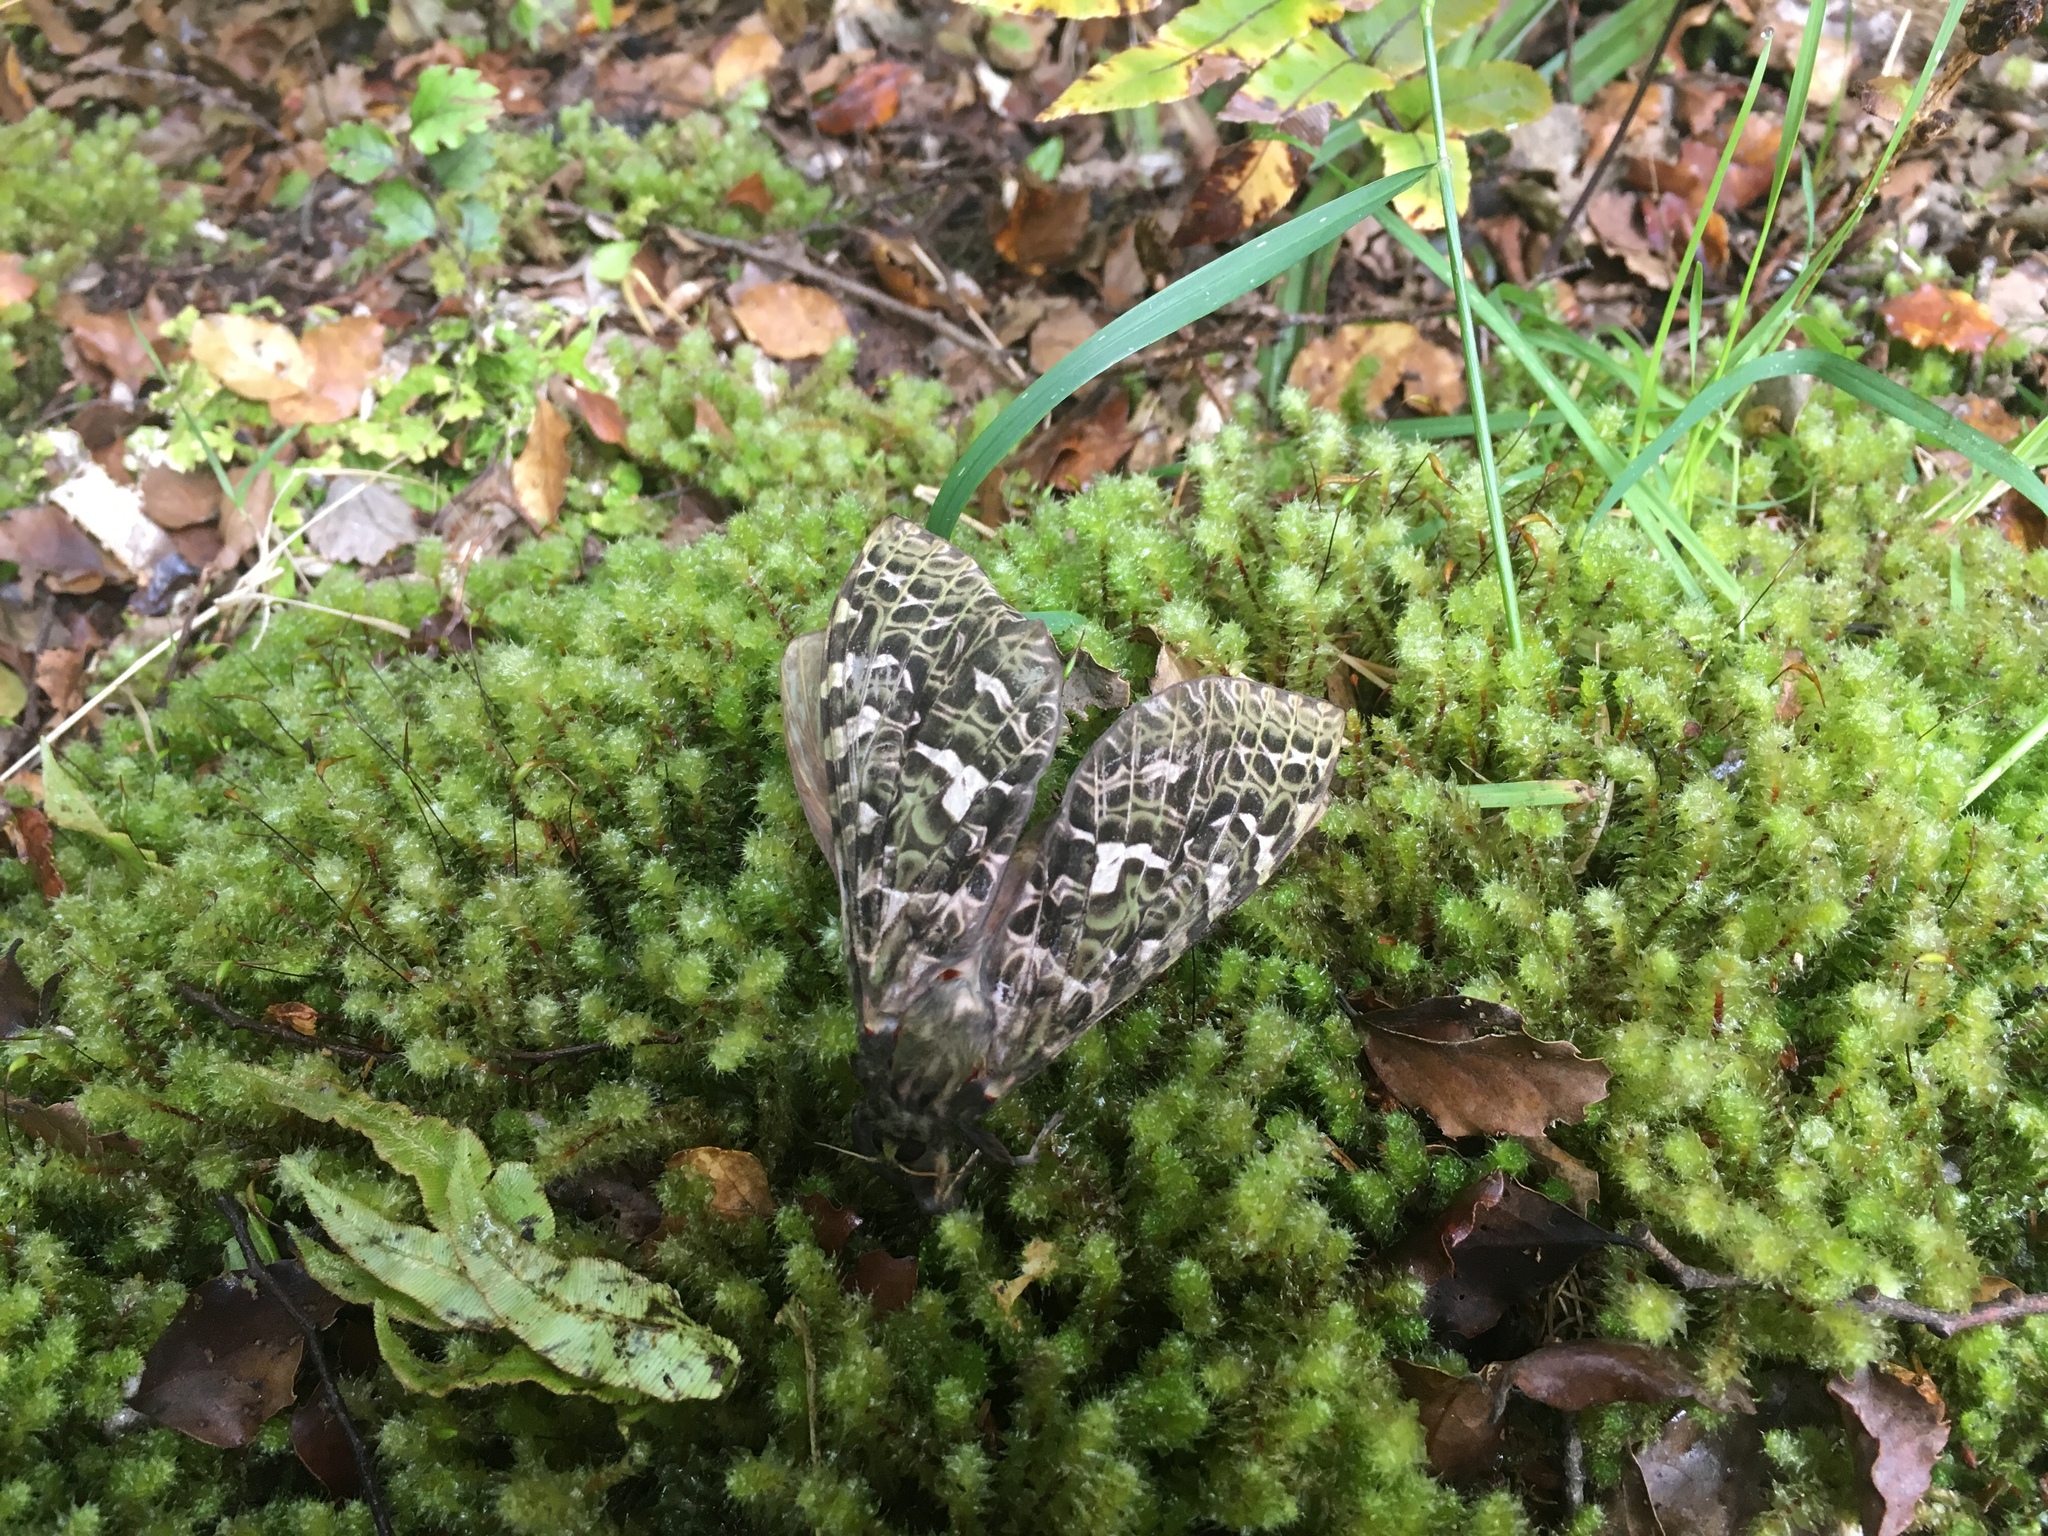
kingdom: Animalia
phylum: Arthropoda
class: Insecta
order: Lepidoptera
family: Hepialidae
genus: Aenetus
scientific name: Aenetus virescens
